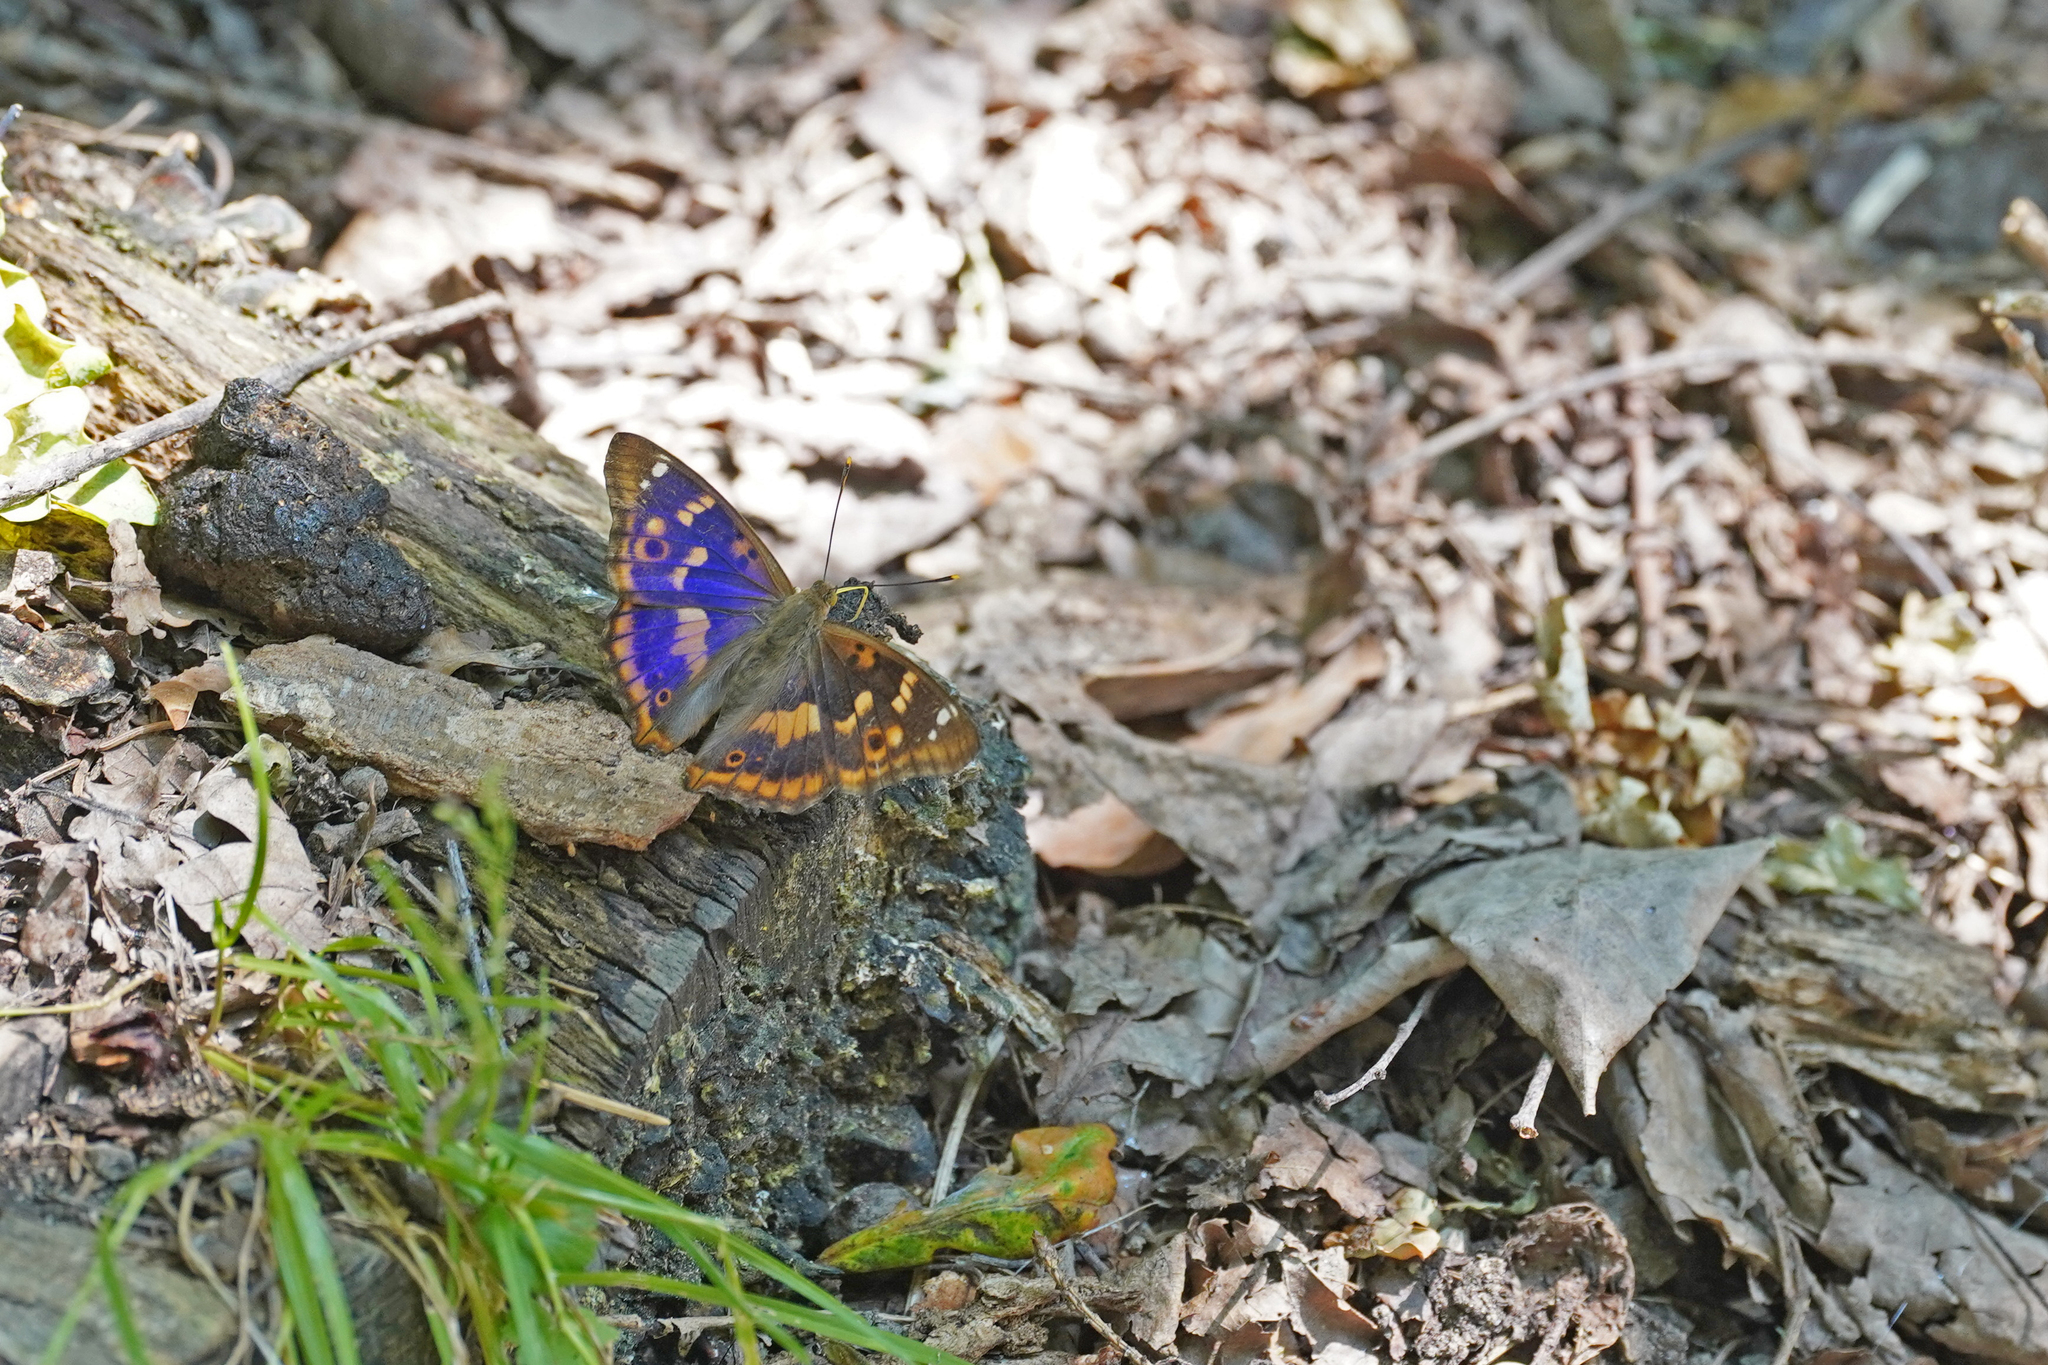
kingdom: Animalia
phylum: Arthropoda
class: Insecta
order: Lepidoptera
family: Nymphalidae
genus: Apatura
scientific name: Apatura ilia
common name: Lesser purple emperor
